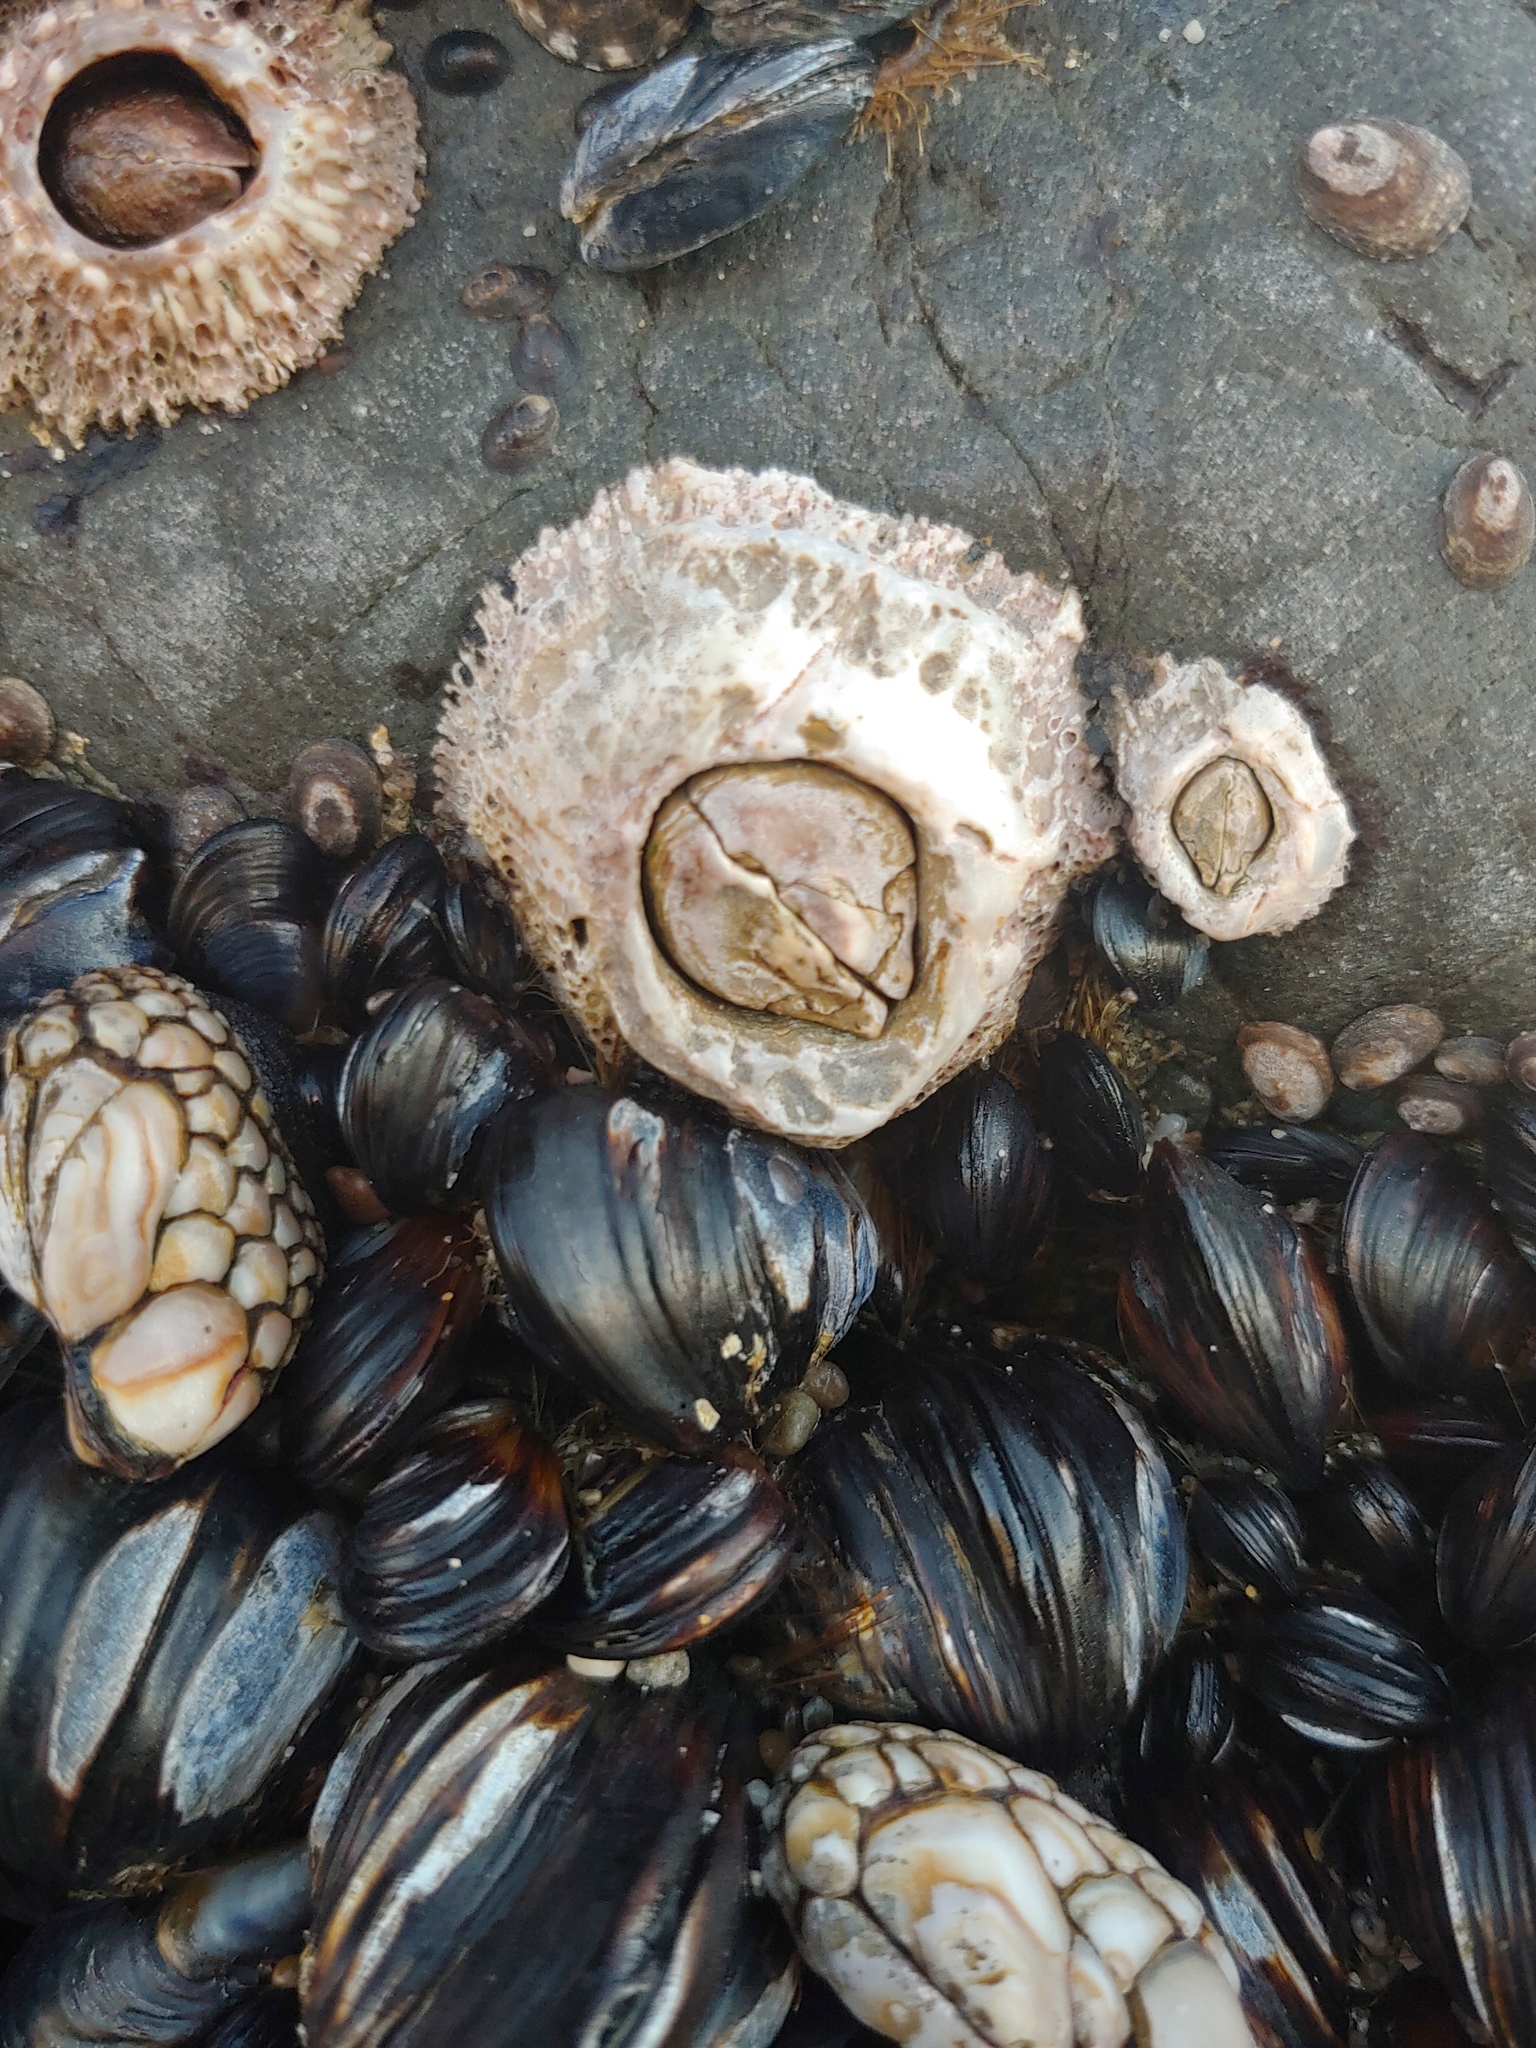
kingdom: Animalia
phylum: Arthropoda
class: Maxillopoda
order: Sessilia
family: Archaeobalanidae
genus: Semibalanus
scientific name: Semibalanus cariosus
